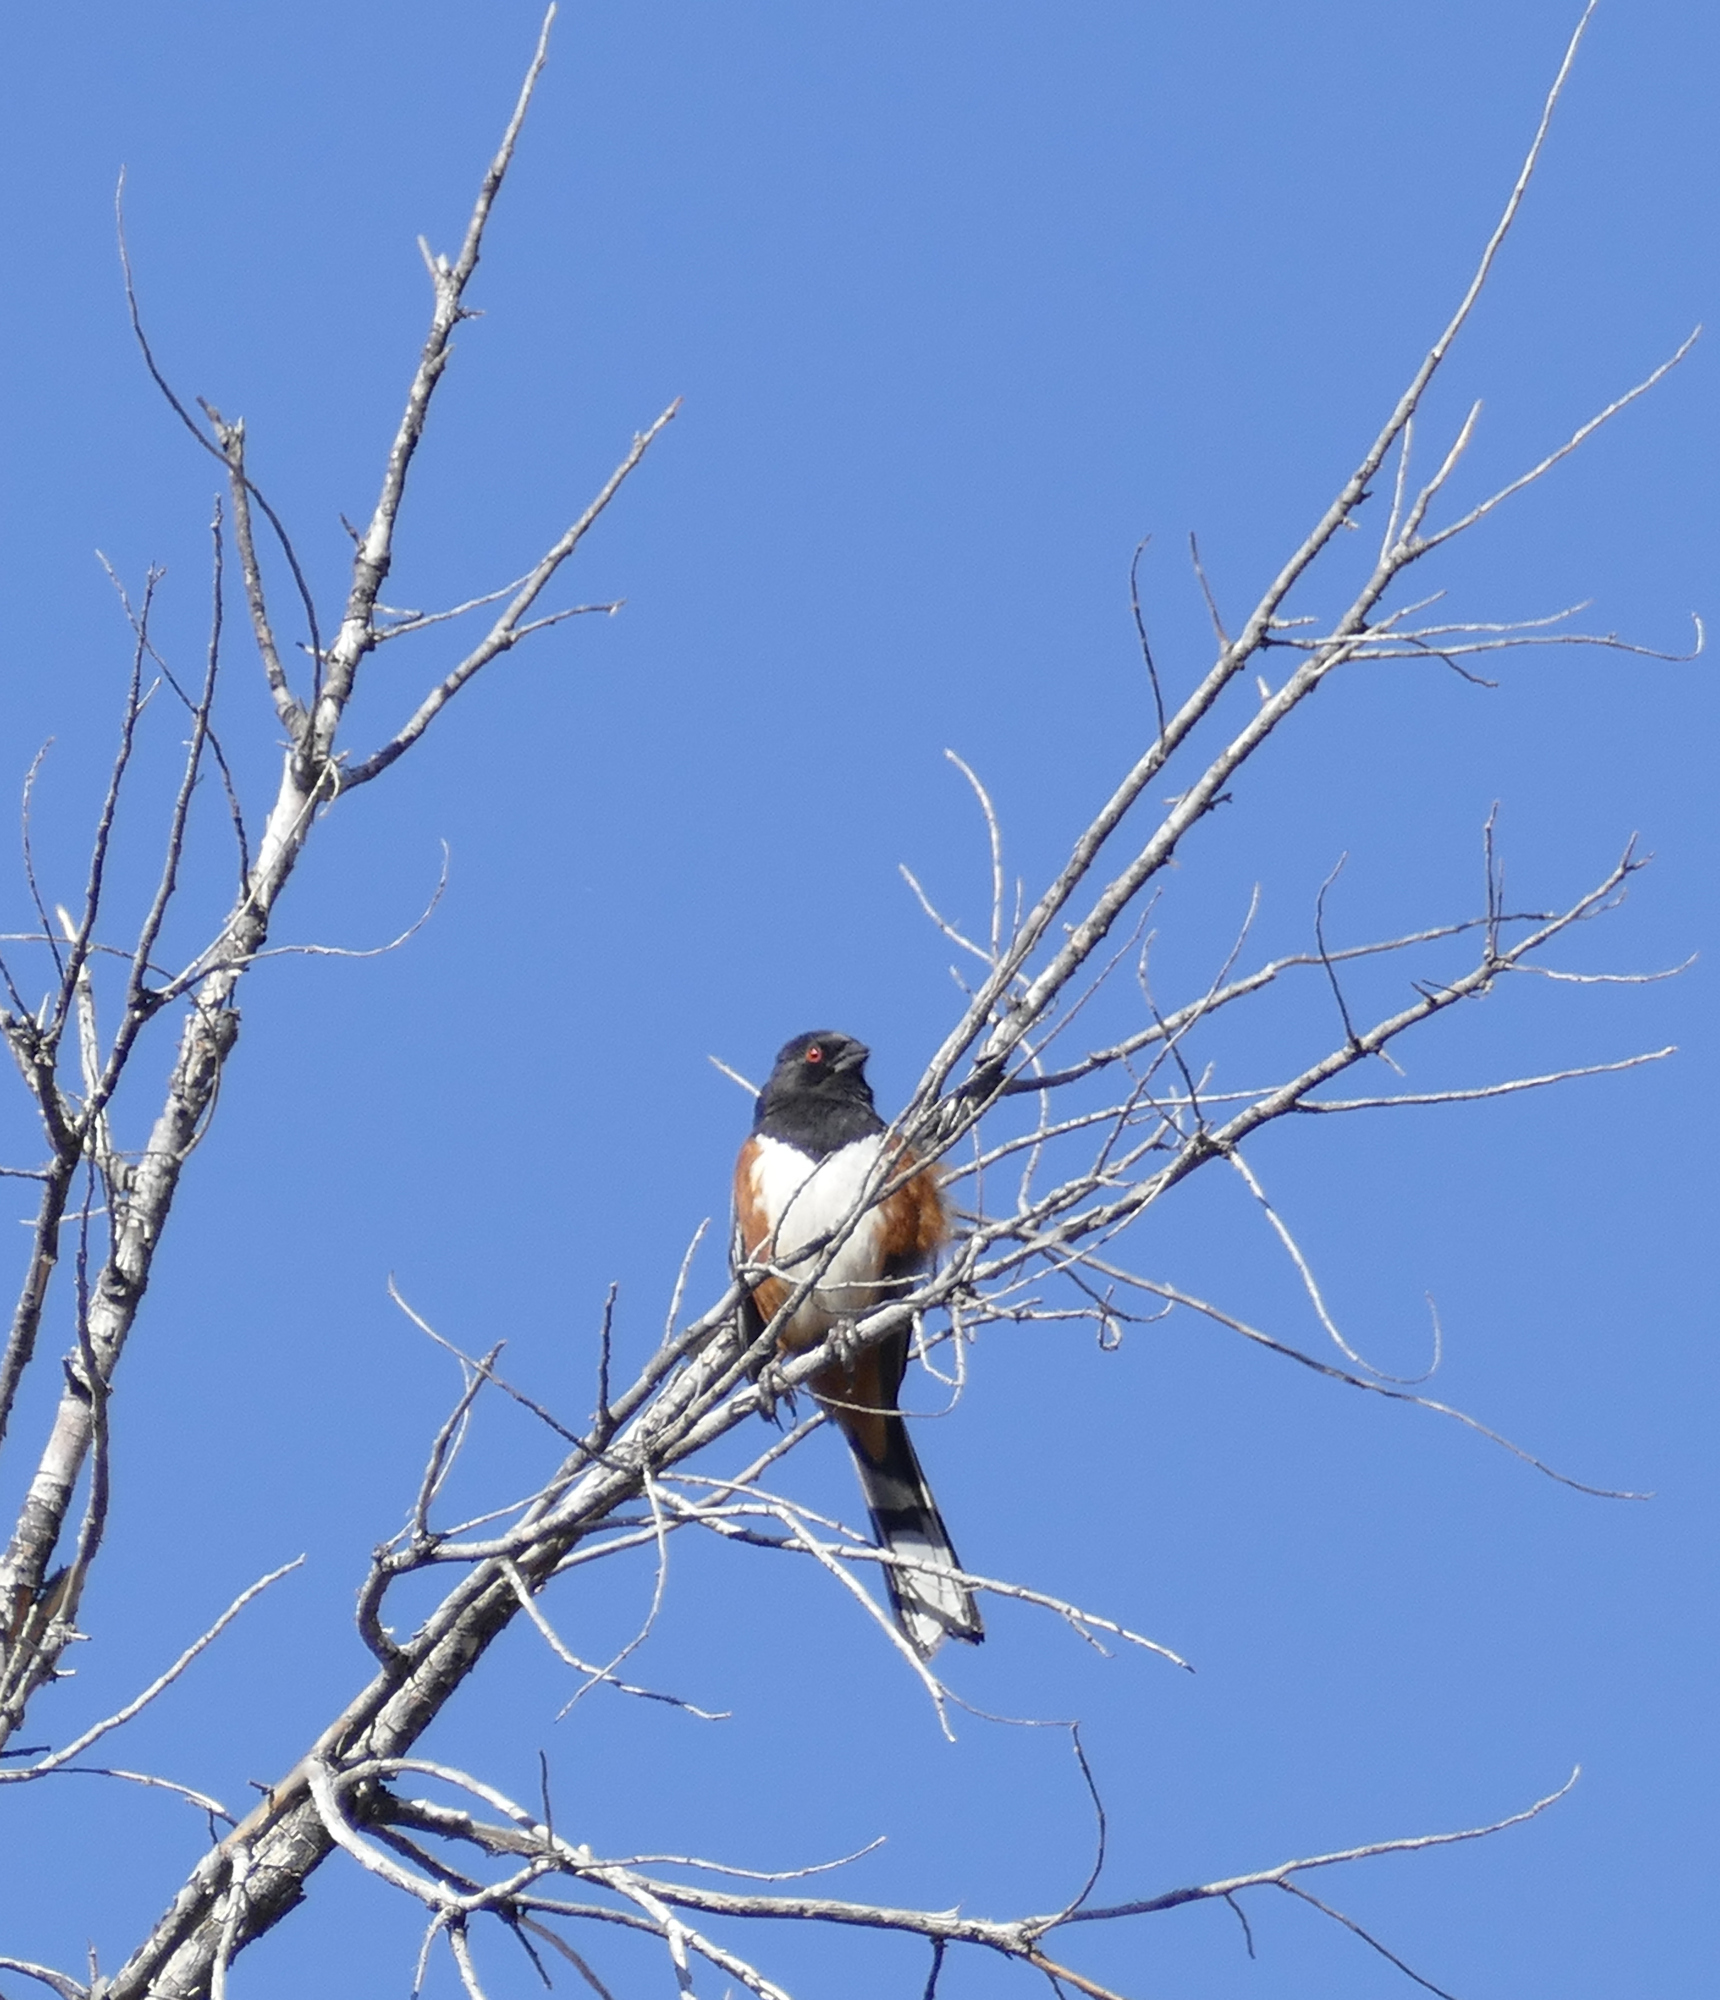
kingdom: Animalia
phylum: Chordata
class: Aves
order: Passeriformes
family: Passerellidae
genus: Pipilo
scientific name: Pipilo maculatus
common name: Spotted towhee
